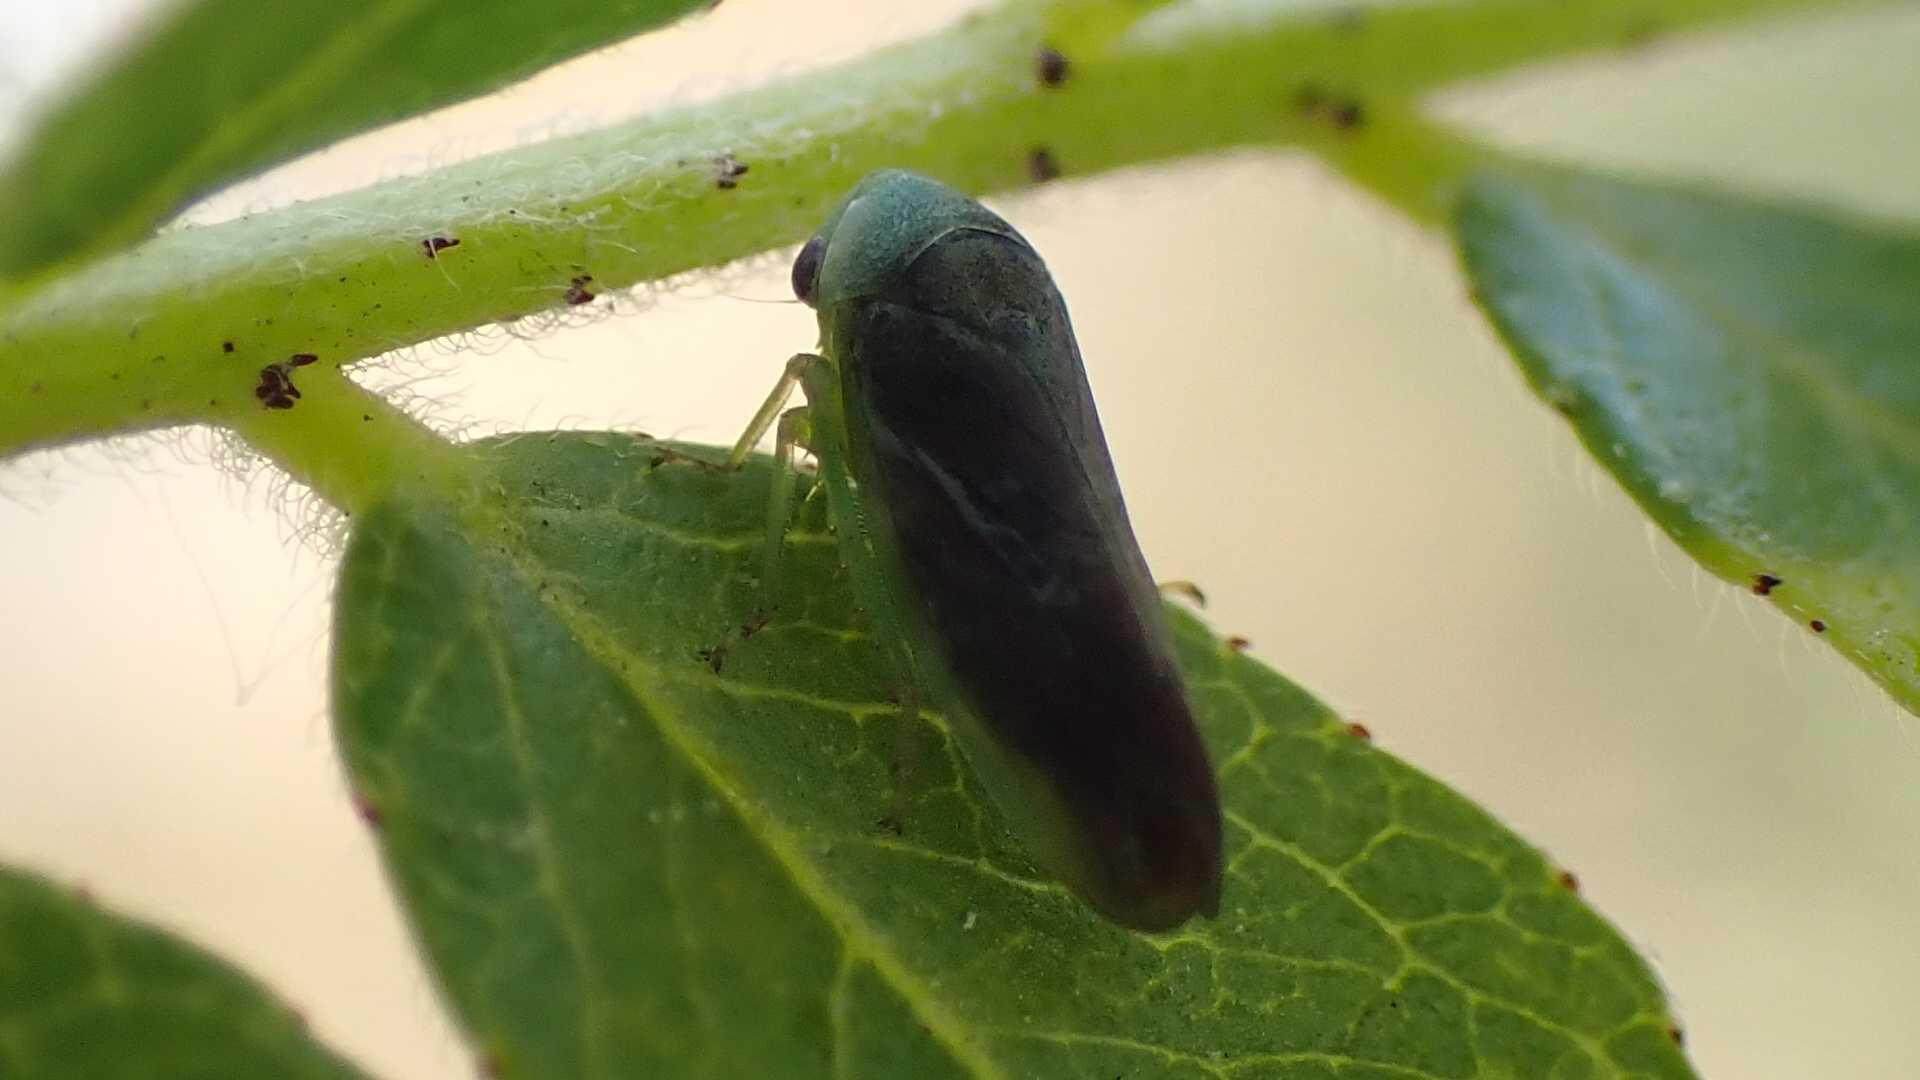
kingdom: Animalia
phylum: Arthropoda
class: Insecta
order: Hemiptera
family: Cicadellidae
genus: Macropsis
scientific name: Macropsis fumipennis
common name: The honeylocust leafhopper
